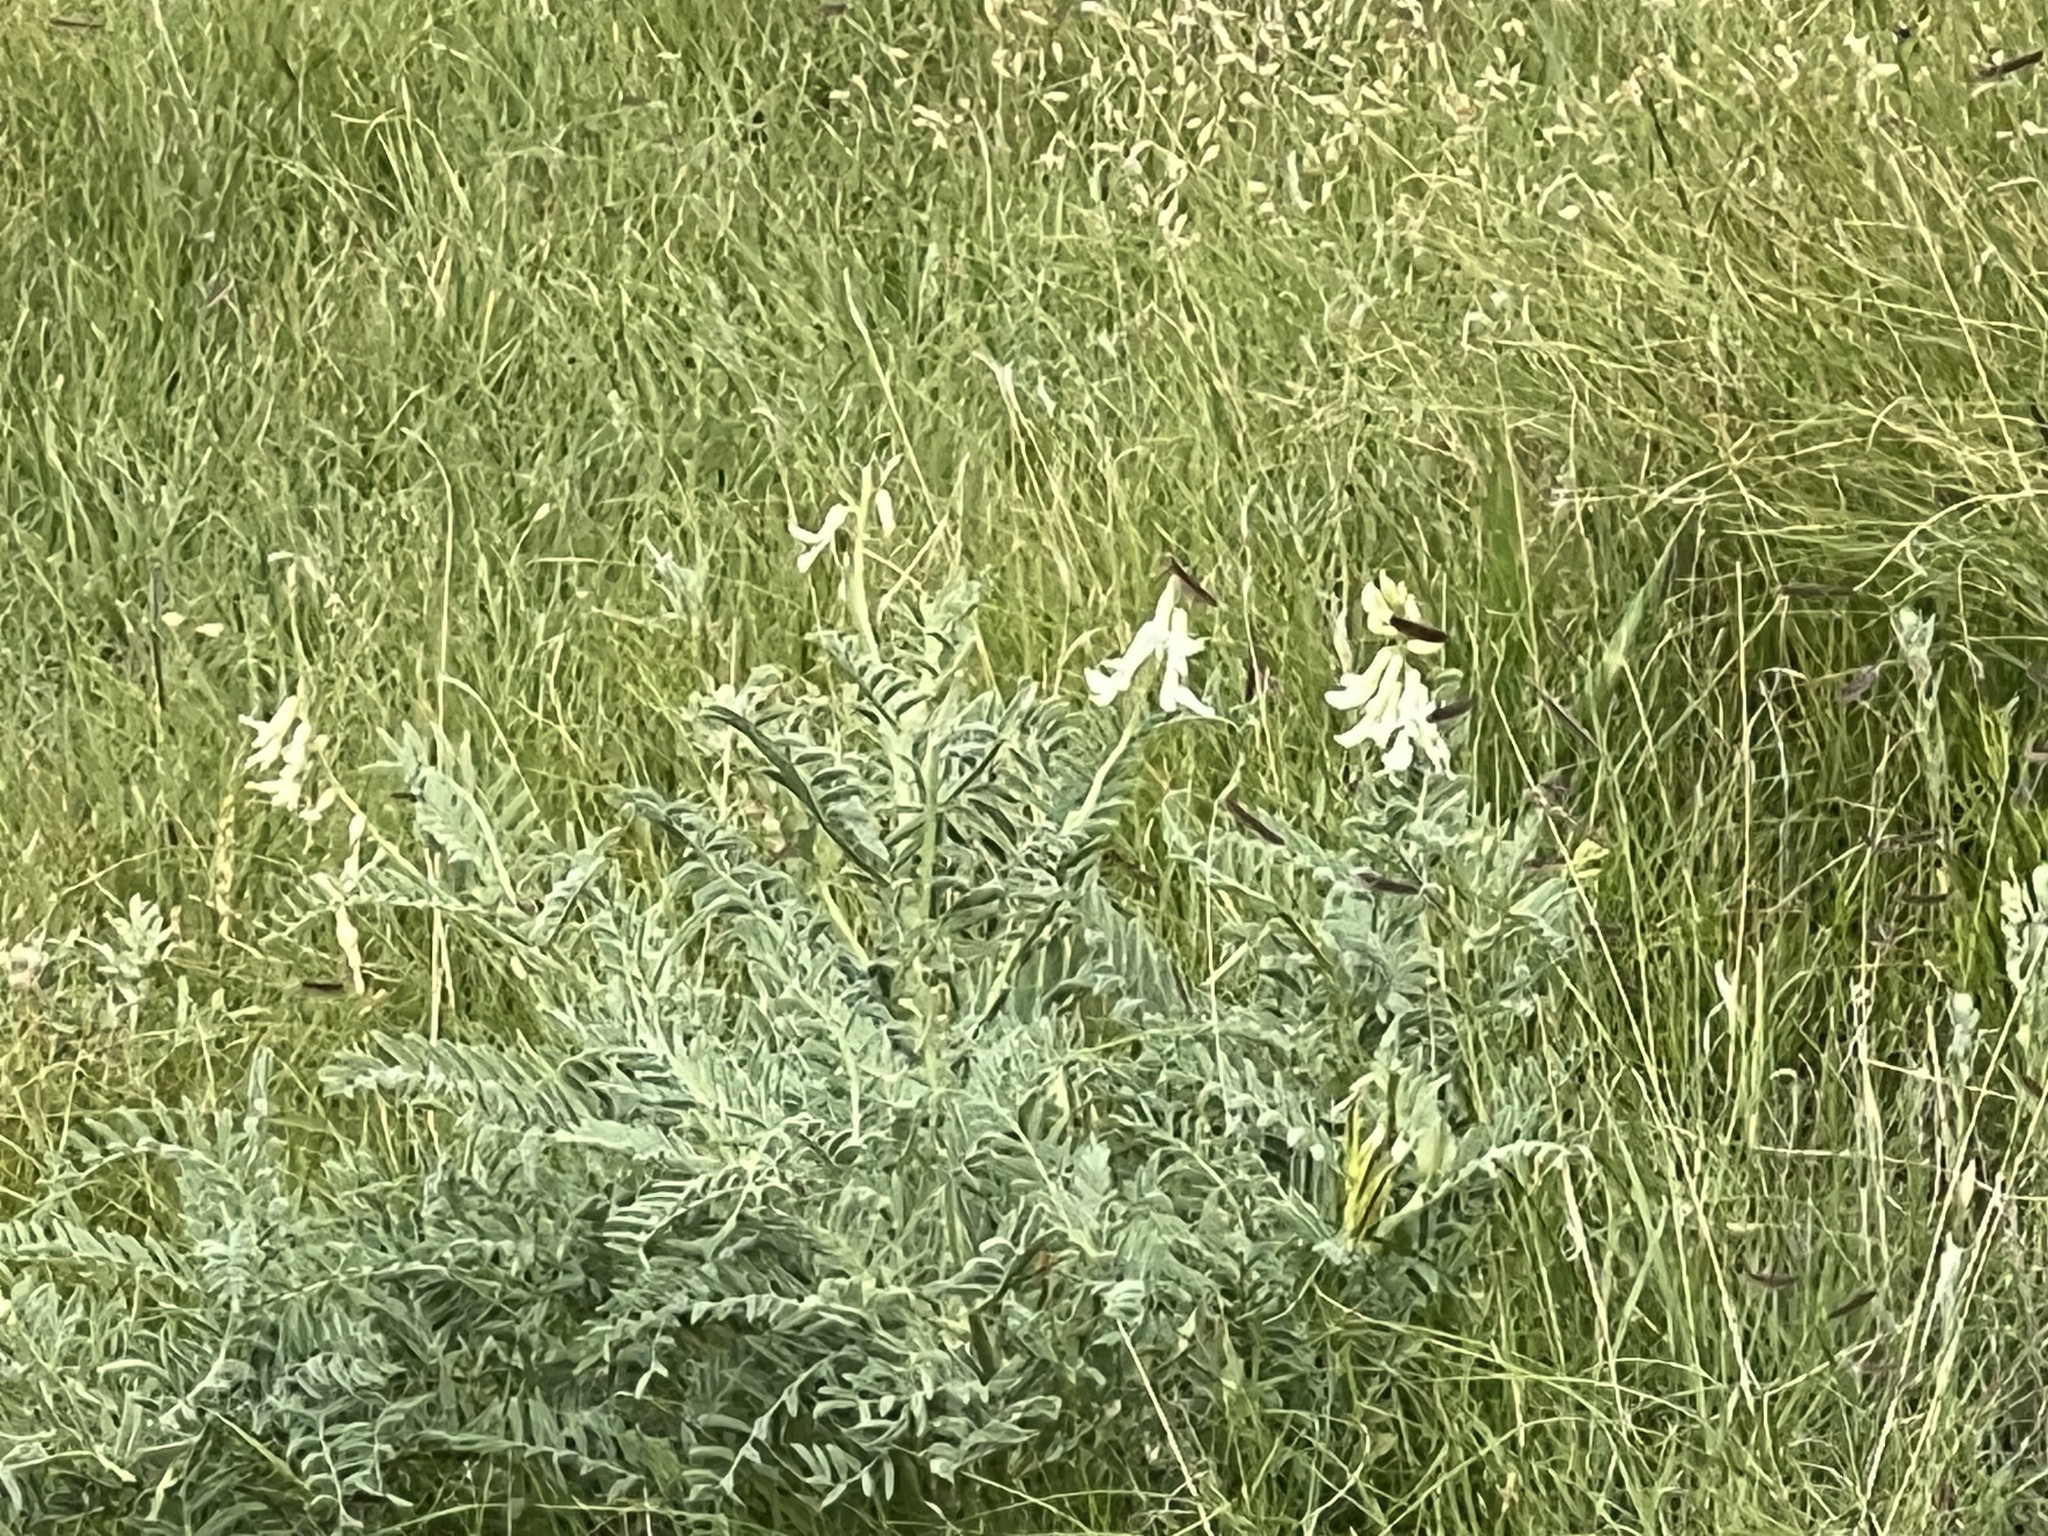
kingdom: Plantae
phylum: Tracheophyta
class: Magnoliopsida
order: Fabales
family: Fabaceae
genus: Astragalus
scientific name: Astragalus drummondii
